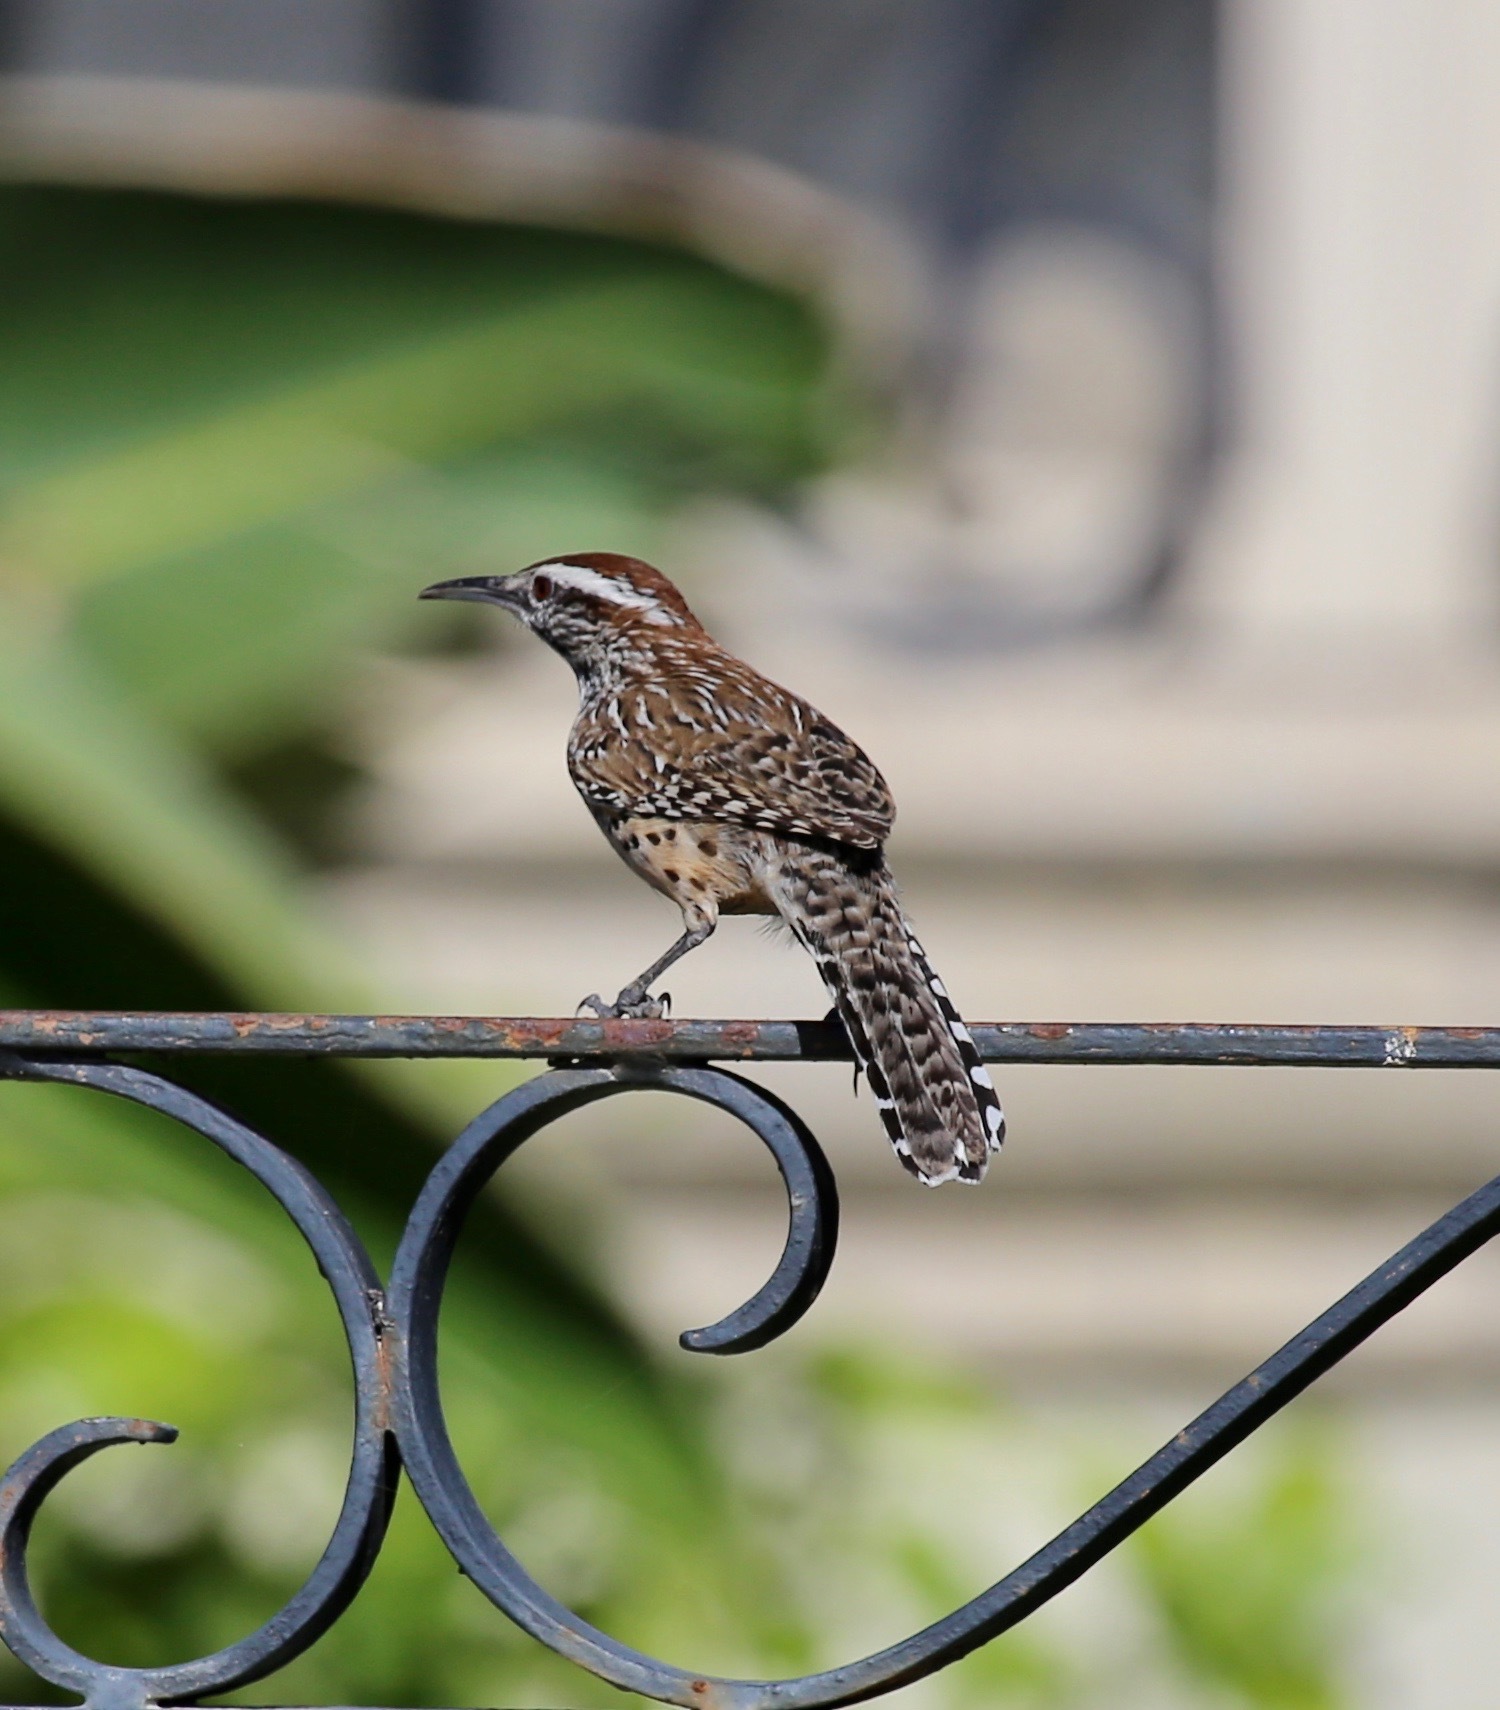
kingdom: Animalia
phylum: Chordata
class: Aves
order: Passeriformes
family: Troglodytidae
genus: Campylorhynchus
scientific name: Campylorhynchus brunneicapillus
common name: Cactus wren
